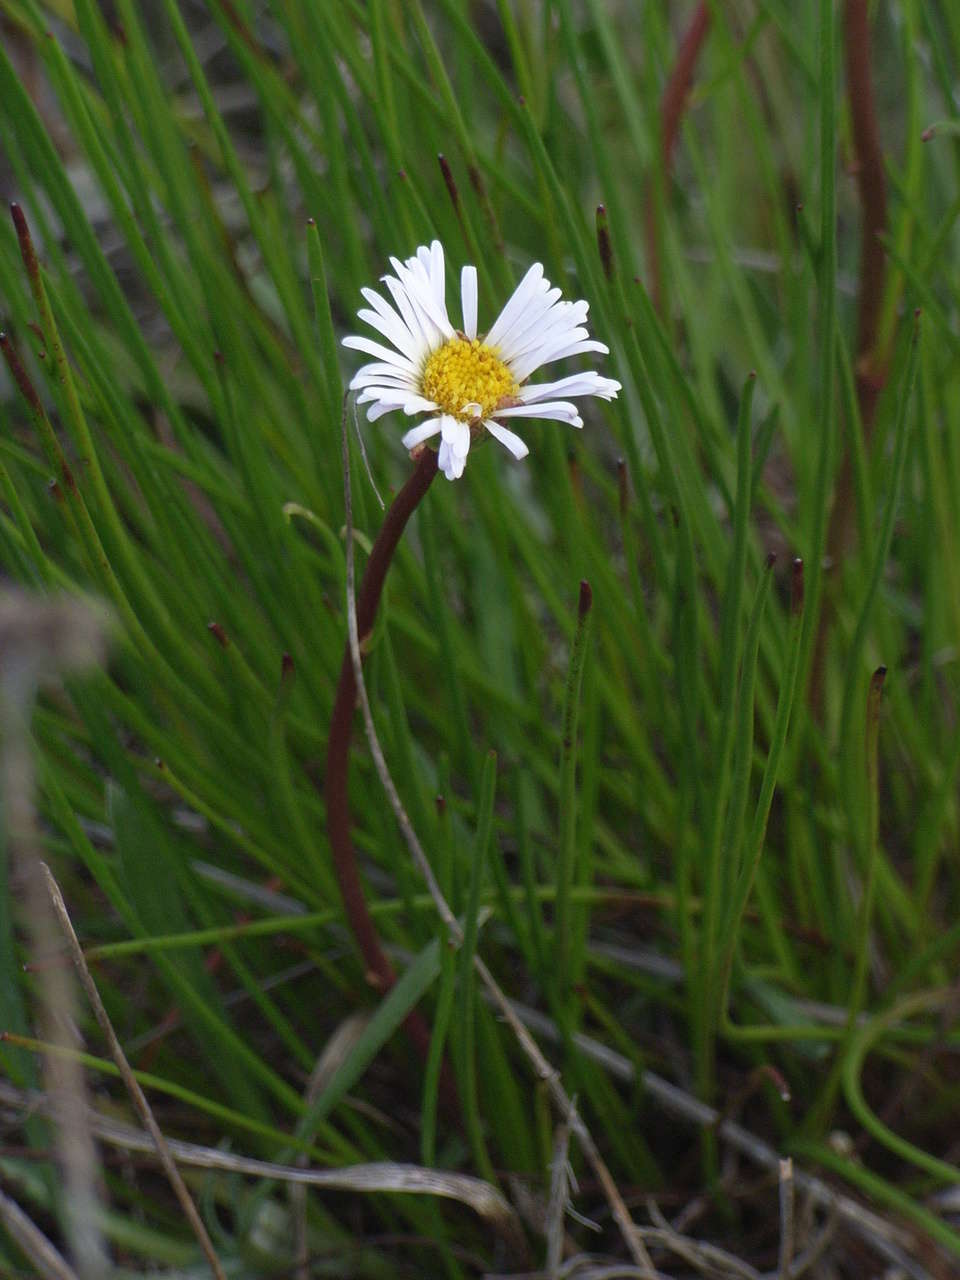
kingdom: Plantae
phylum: Tracheophyta
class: Magnoliopsida
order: Asterales
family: Asteraceae
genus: Allittia
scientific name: Allittia cardiocarpa
